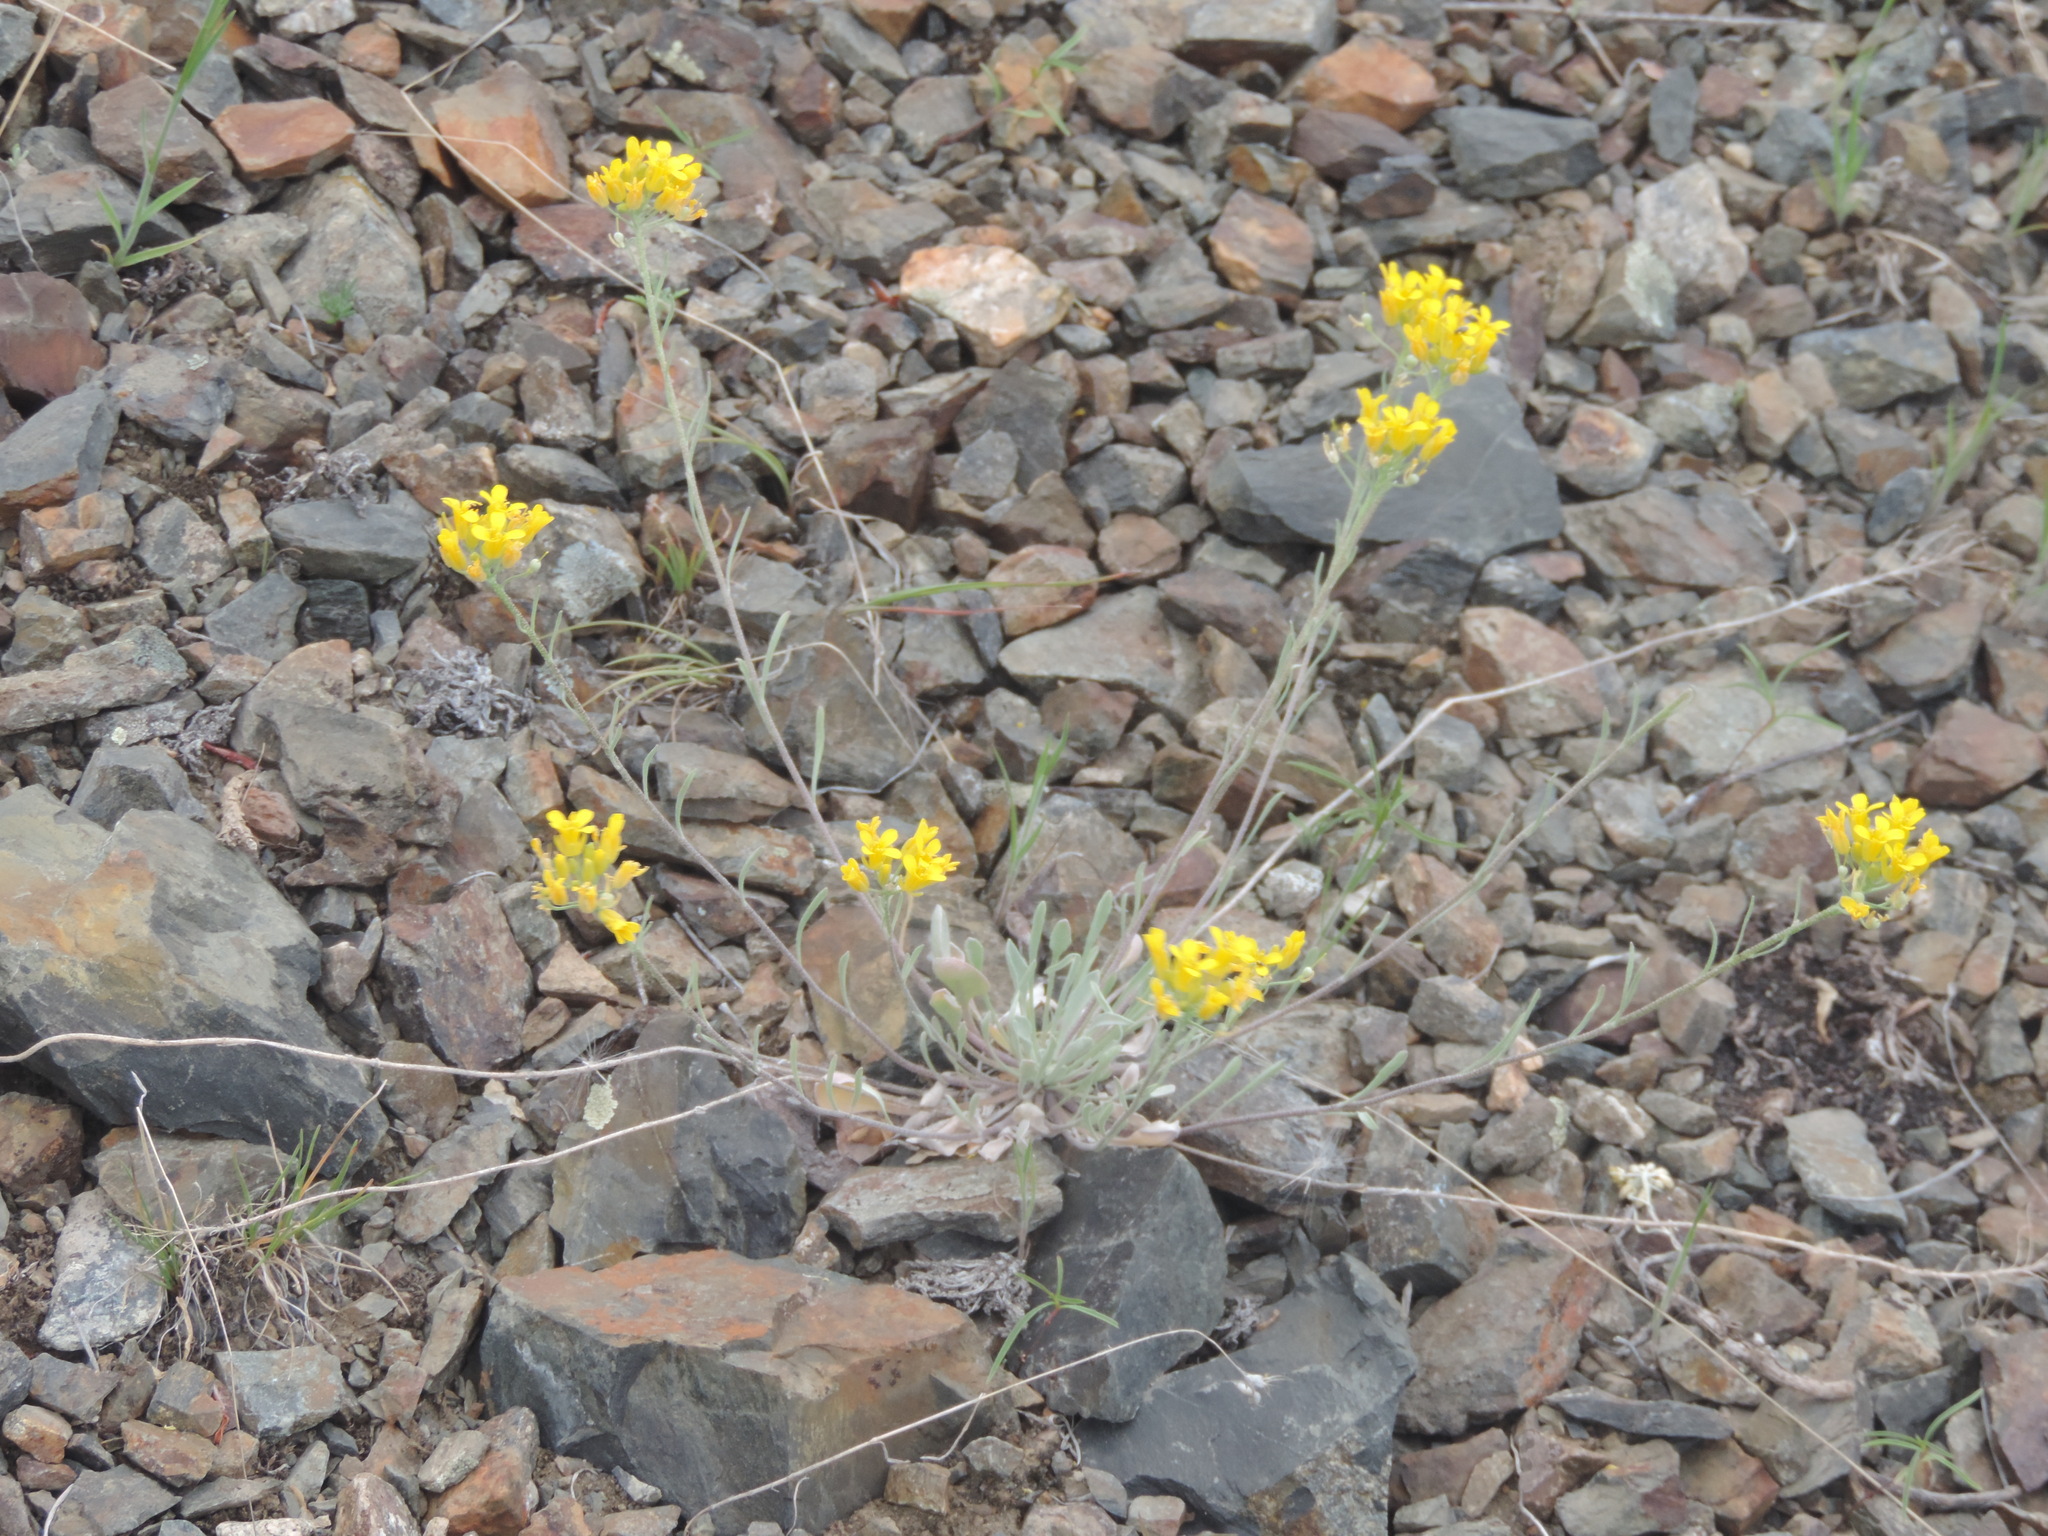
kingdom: Plantae
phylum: Tracheophyta
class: Magnoliopsida
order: Brassicales
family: Brassicaceae
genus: Physaria
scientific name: Physaria douglasii
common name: Douglas's bladderpod
